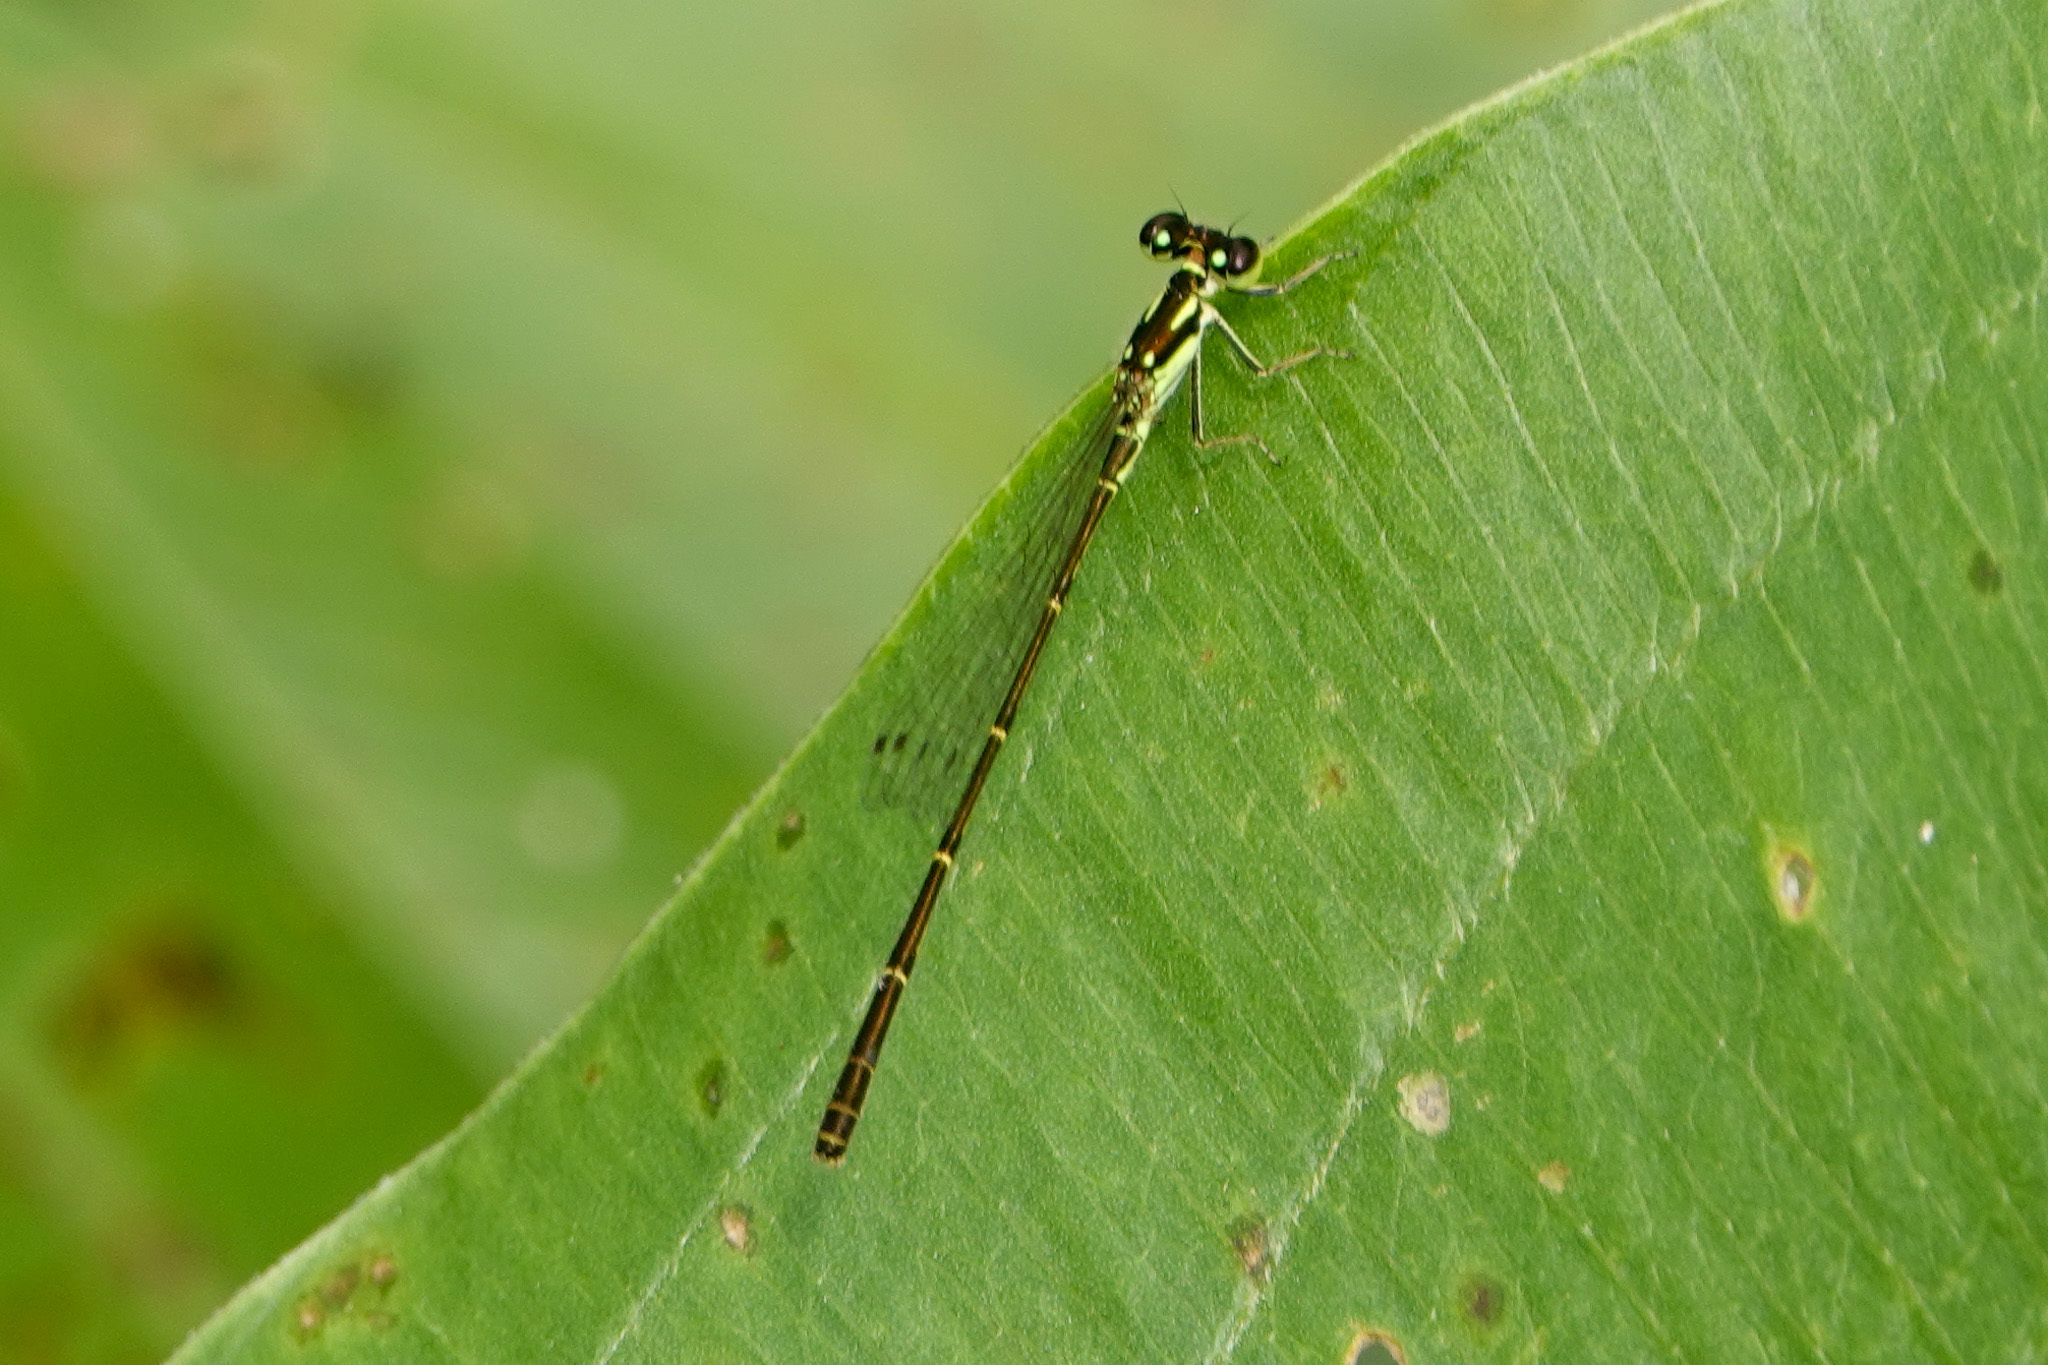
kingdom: Animalia
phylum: Arthropoda
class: Insecta
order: Odonata
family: Coenagrionidae
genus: Ischnura
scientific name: Ischnura posita
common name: Fragile forktail
